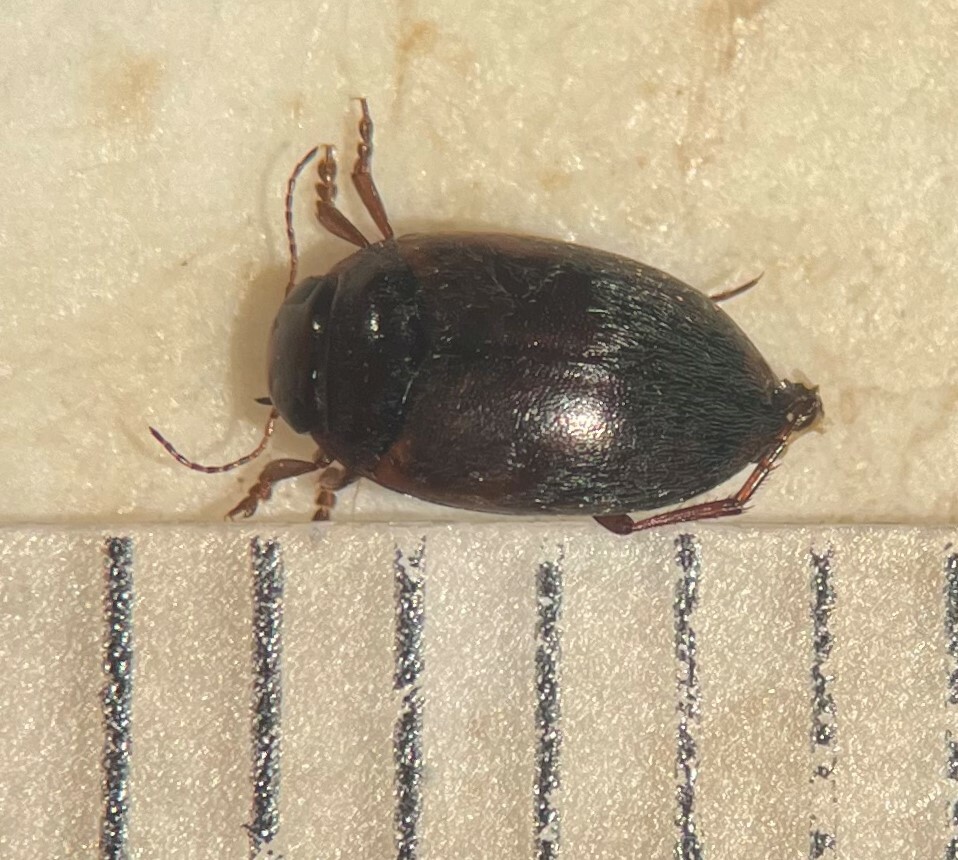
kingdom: Animalia
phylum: Arthropoda
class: Insecta
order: Coleoptera
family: Dytiscidae
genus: Hydroporus
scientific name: Hydroporus signatus
